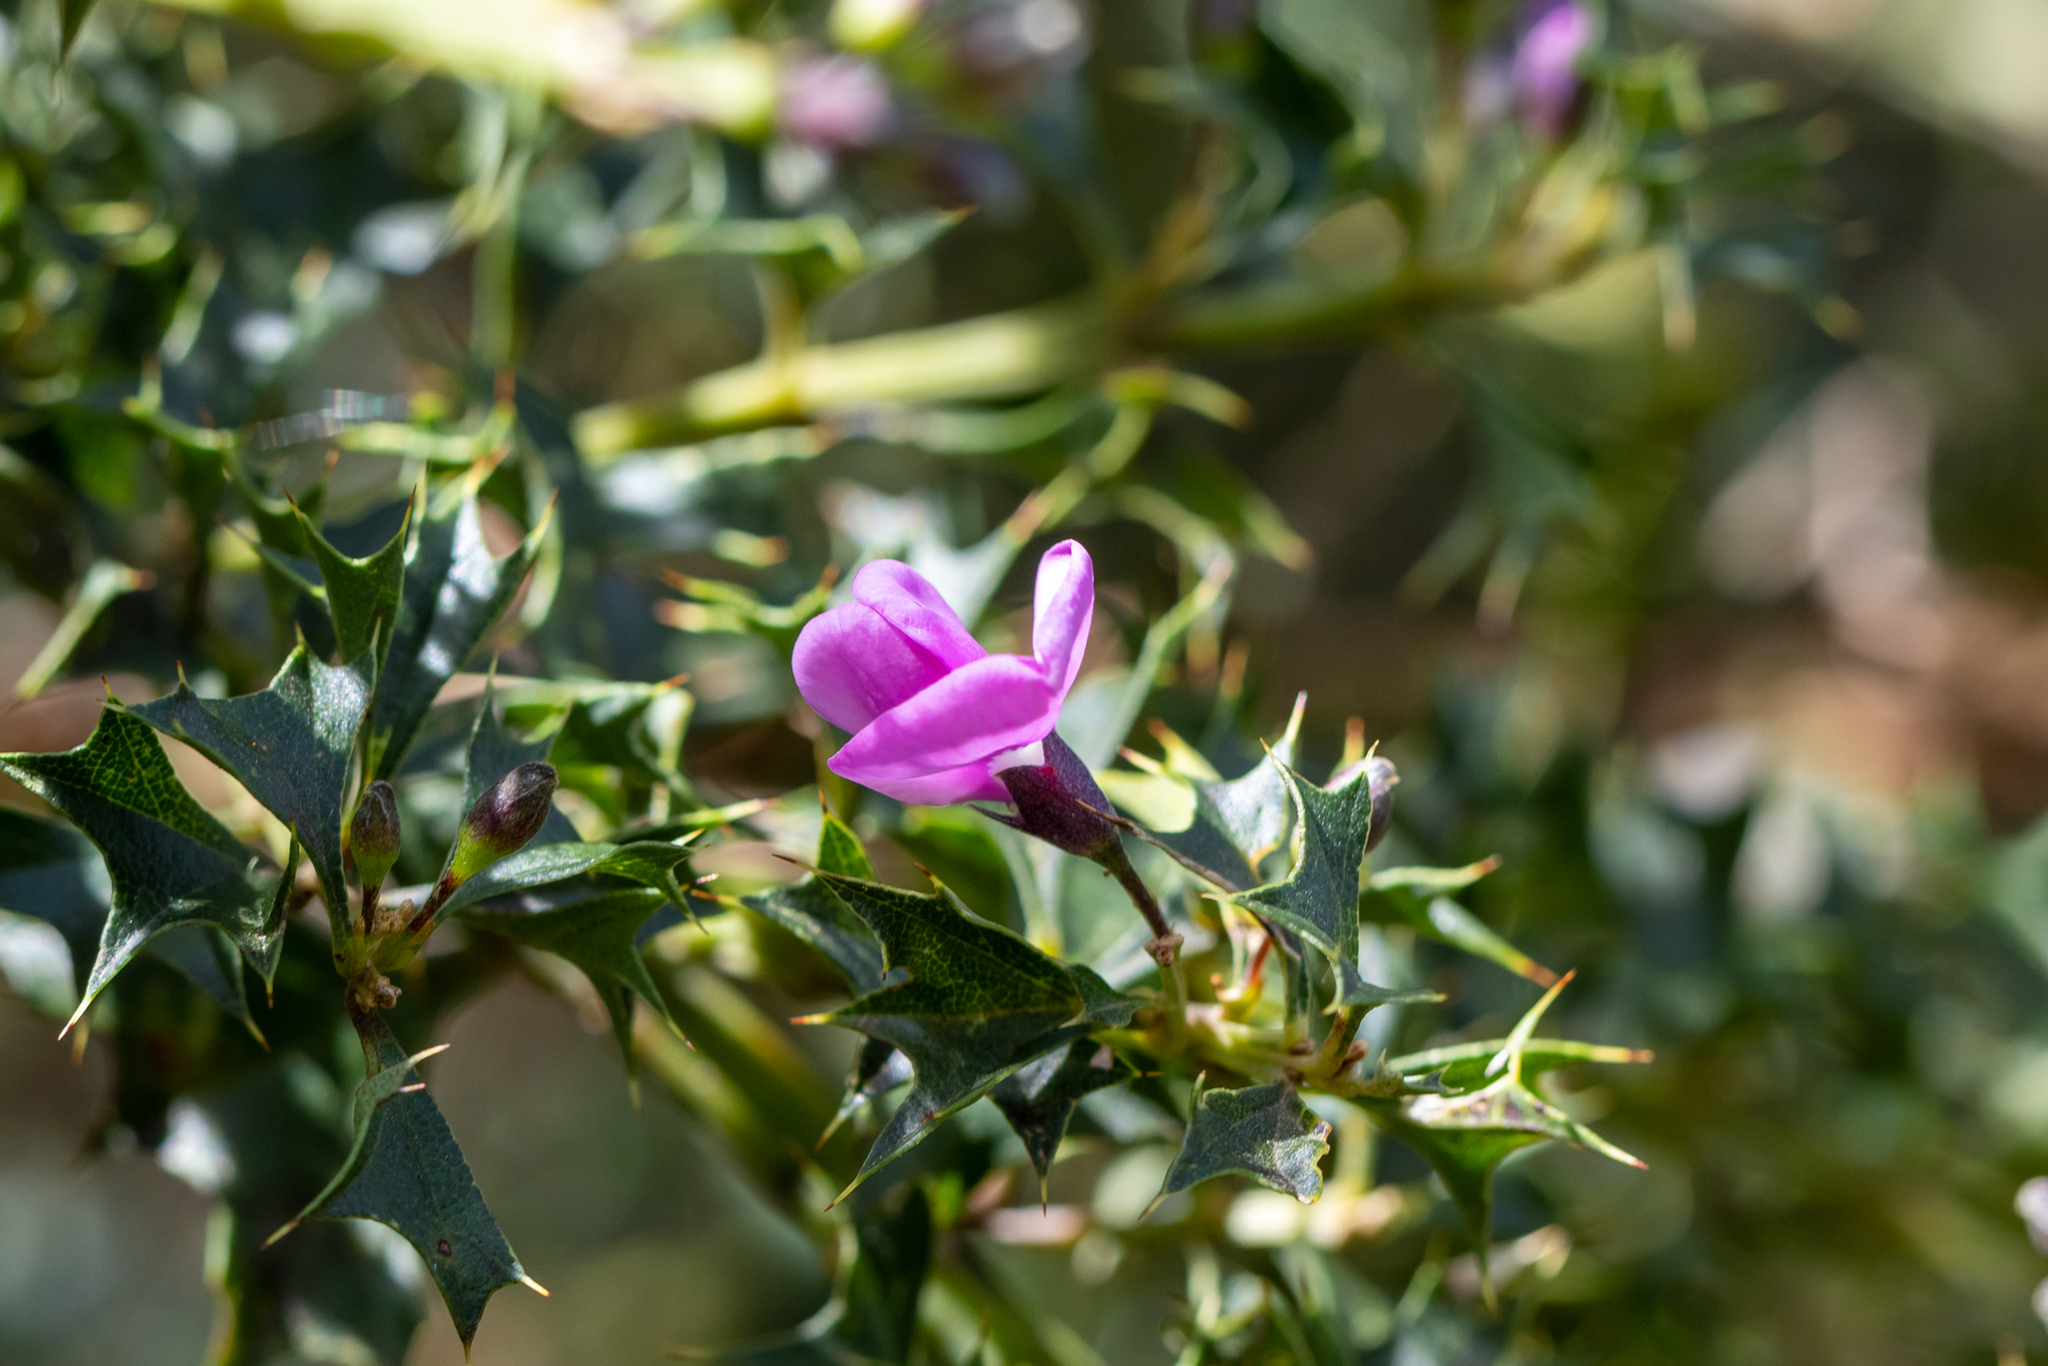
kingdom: Plantae
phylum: Tracheophyta
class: Magnoliopsida
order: Fabales
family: Fabaceae
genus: Mirbelia
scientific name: Mirbelia dilatata
